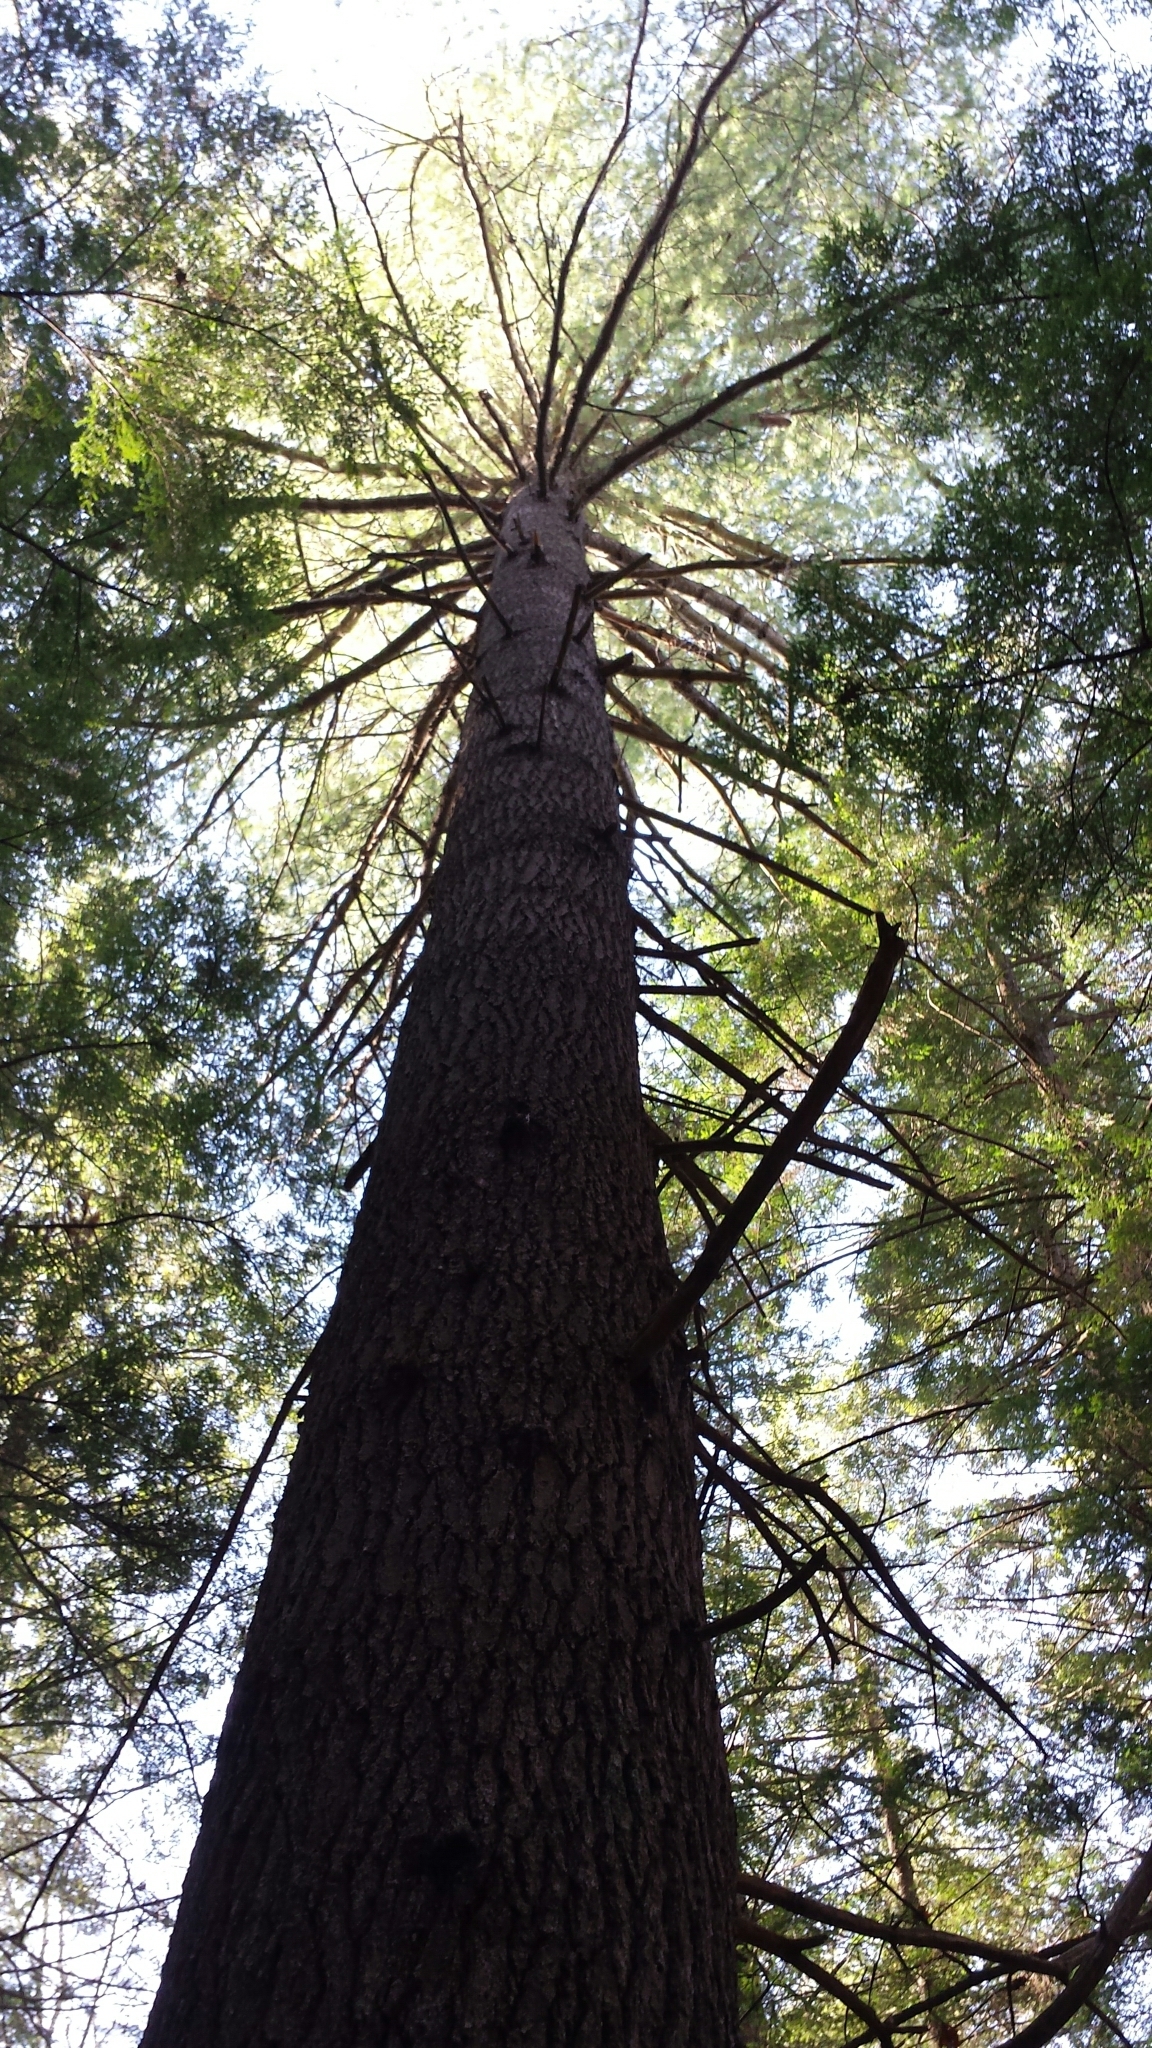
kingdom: Plantae
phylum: Tracheophyta
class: Pinopsida
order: Pinales
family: Pinaceae
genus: Pinus
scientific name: Pinus strobus
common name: Weymouth pine
